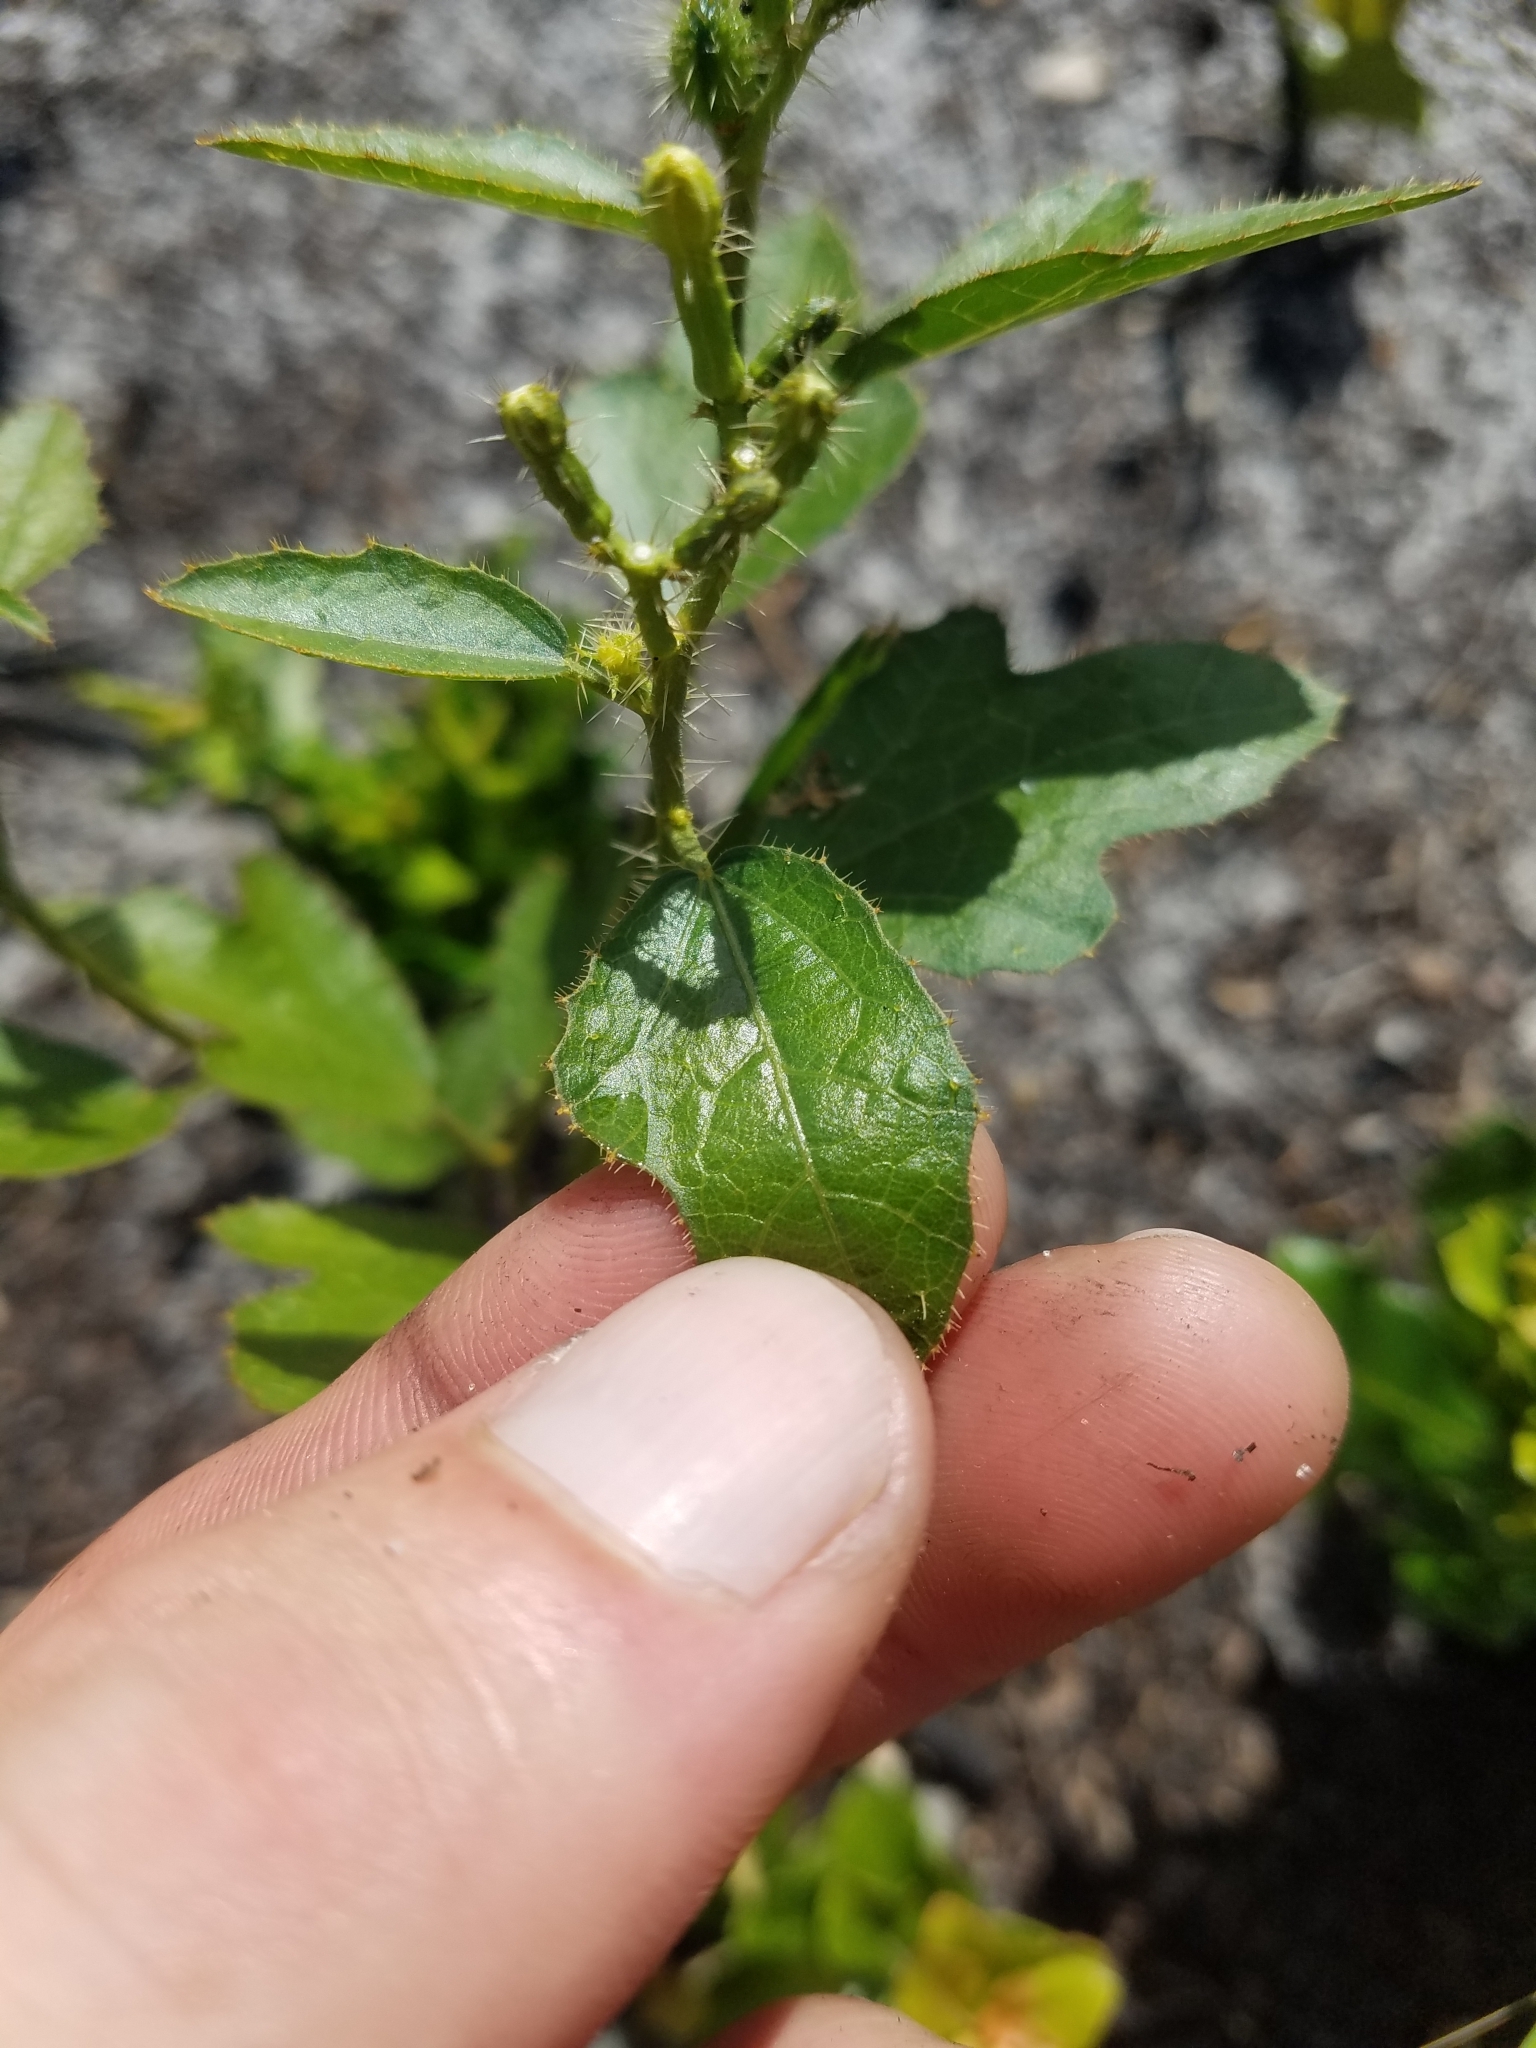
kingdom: Plantae
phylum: Tracheophyta
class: Magnoliopsida
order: Malpighiales
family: Euphorbiaceae
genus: Cnidoscolus
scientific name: Cnidoscolus stimulosus
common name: Bull-nettle
